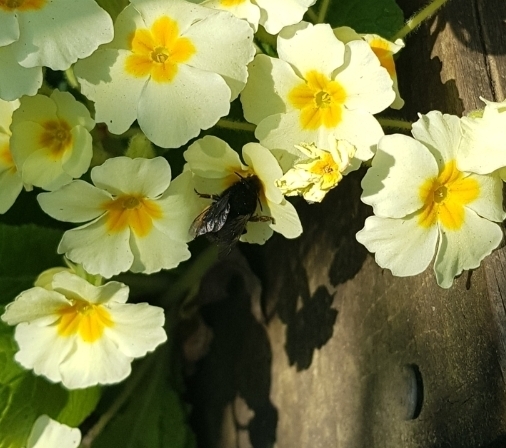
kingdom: Animalia
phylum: Arthropoda
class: Insecta
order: Hymenoptera
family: Apidae
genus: Anthophora
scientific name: Anthophora plumipes
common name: Hairy-footed flower bee
